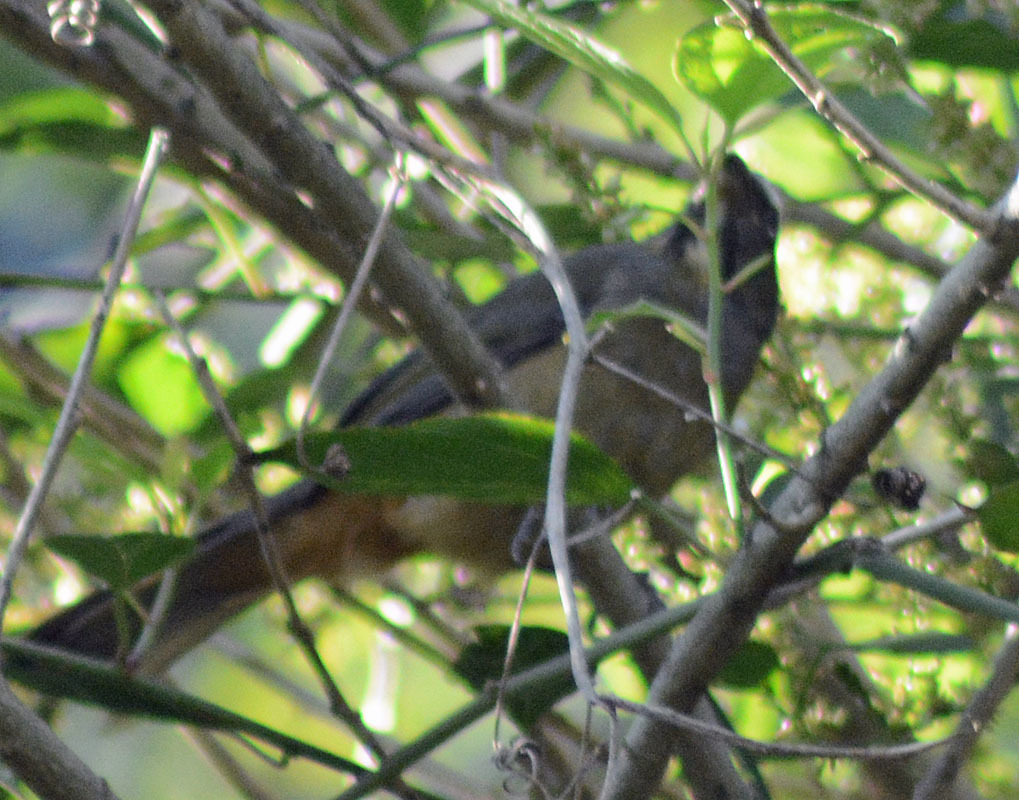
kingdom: Animalia
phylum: Chordata
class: Aves
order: Passeriformes
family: Thraupidae
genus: Saltator
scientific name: Saltator grandis
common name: Cinnamon-bellied saltator
